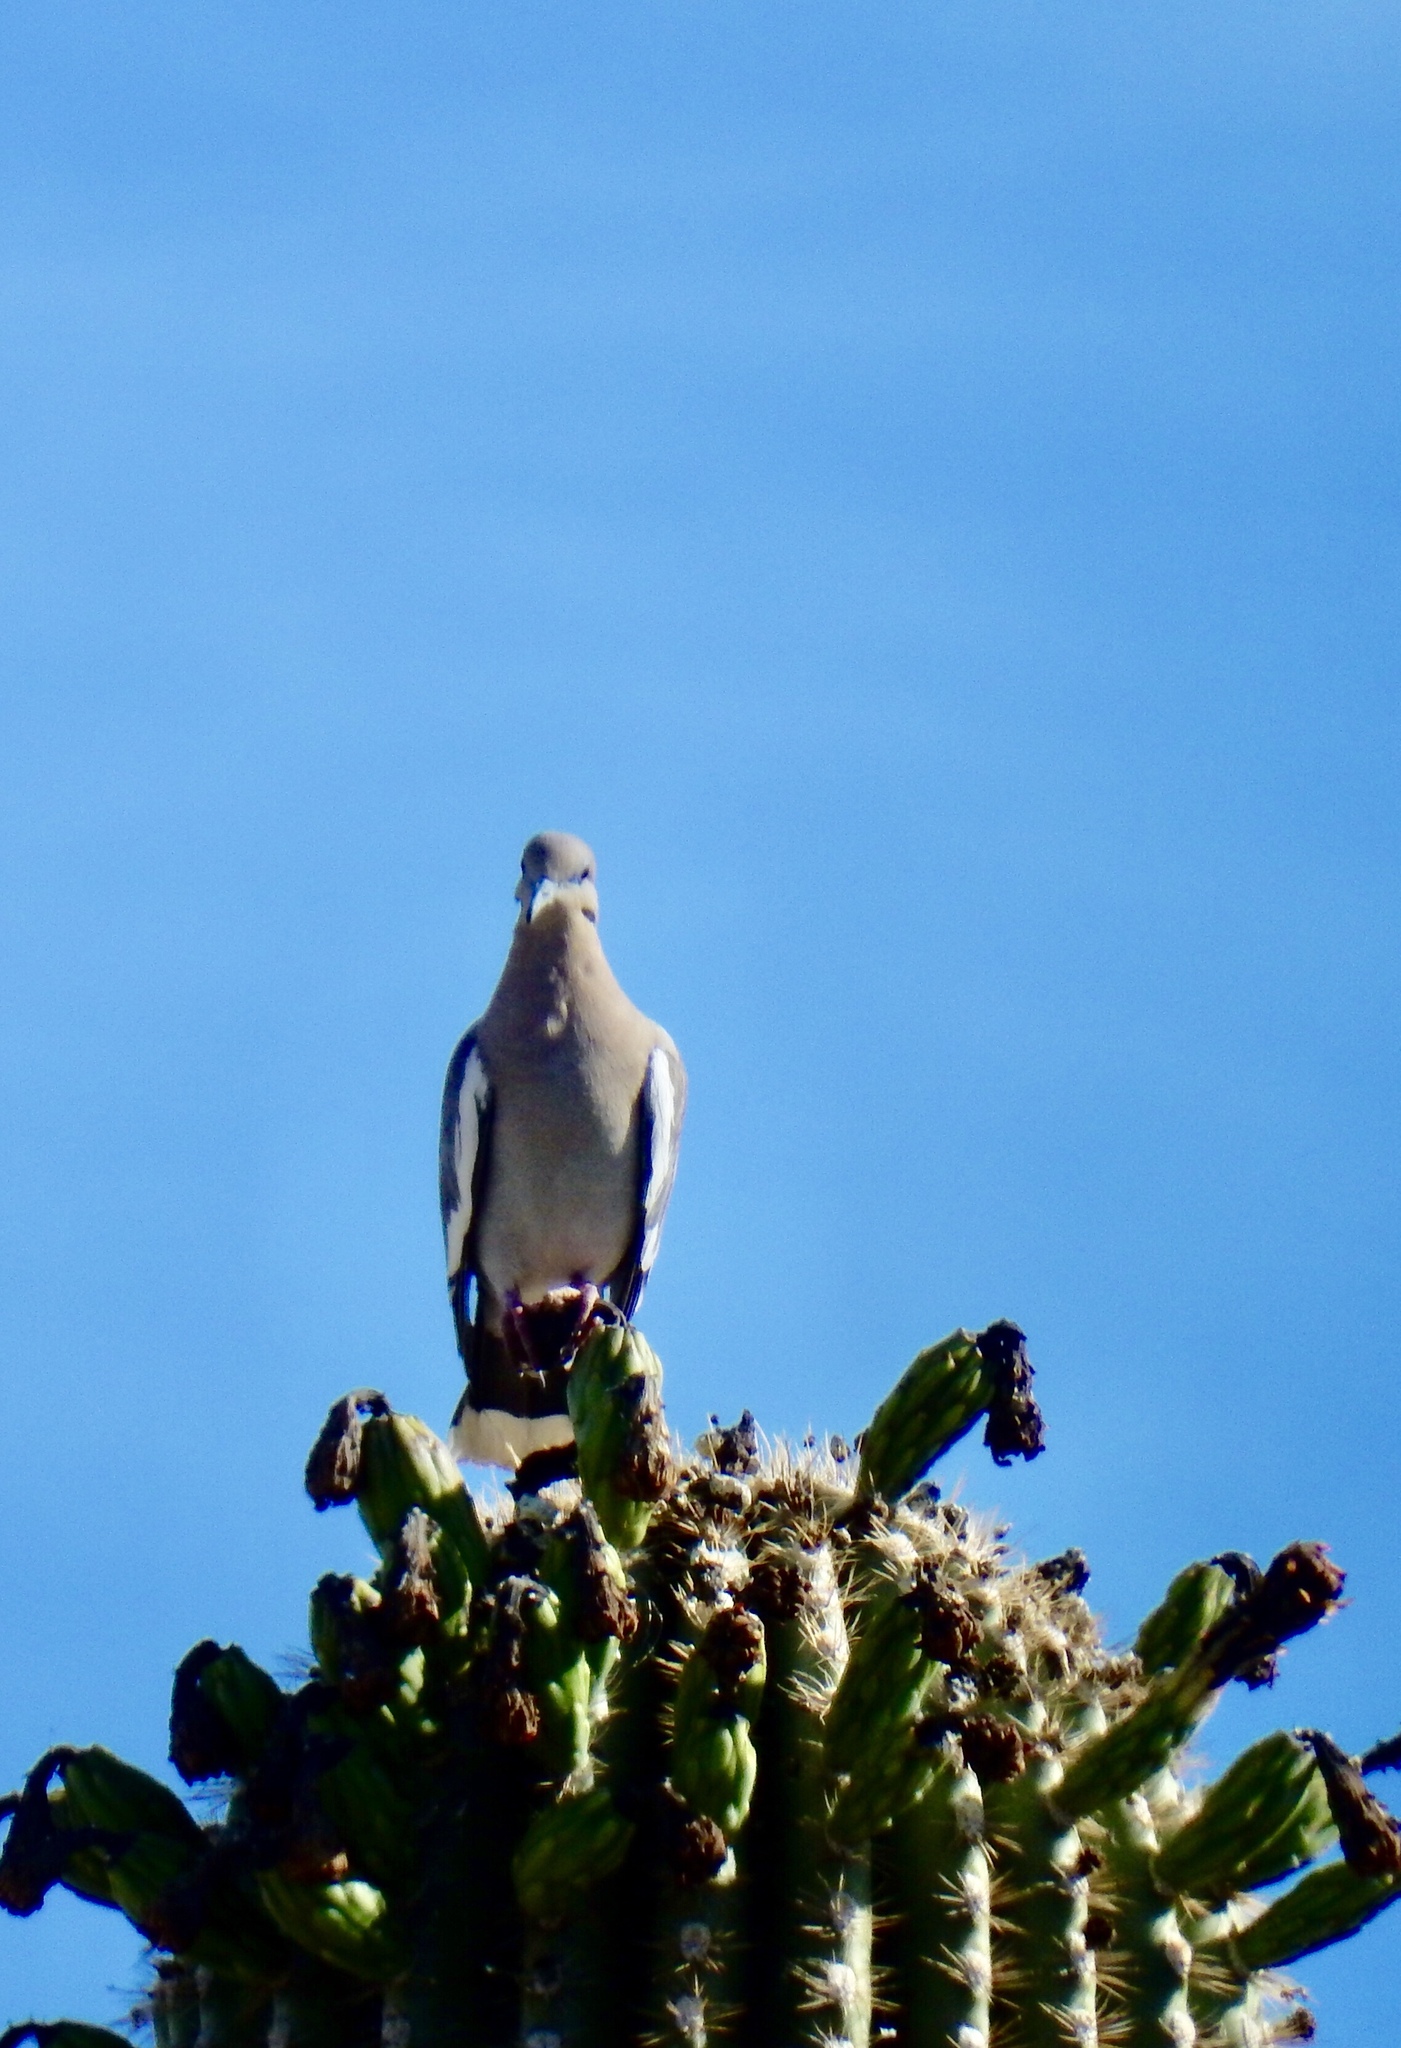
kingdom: Animalia
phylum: Chordata
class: Aves
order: Columbiformes
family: Columbidae
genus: Zenaida
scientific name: Zenaida asiatica
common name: White-winged dove
